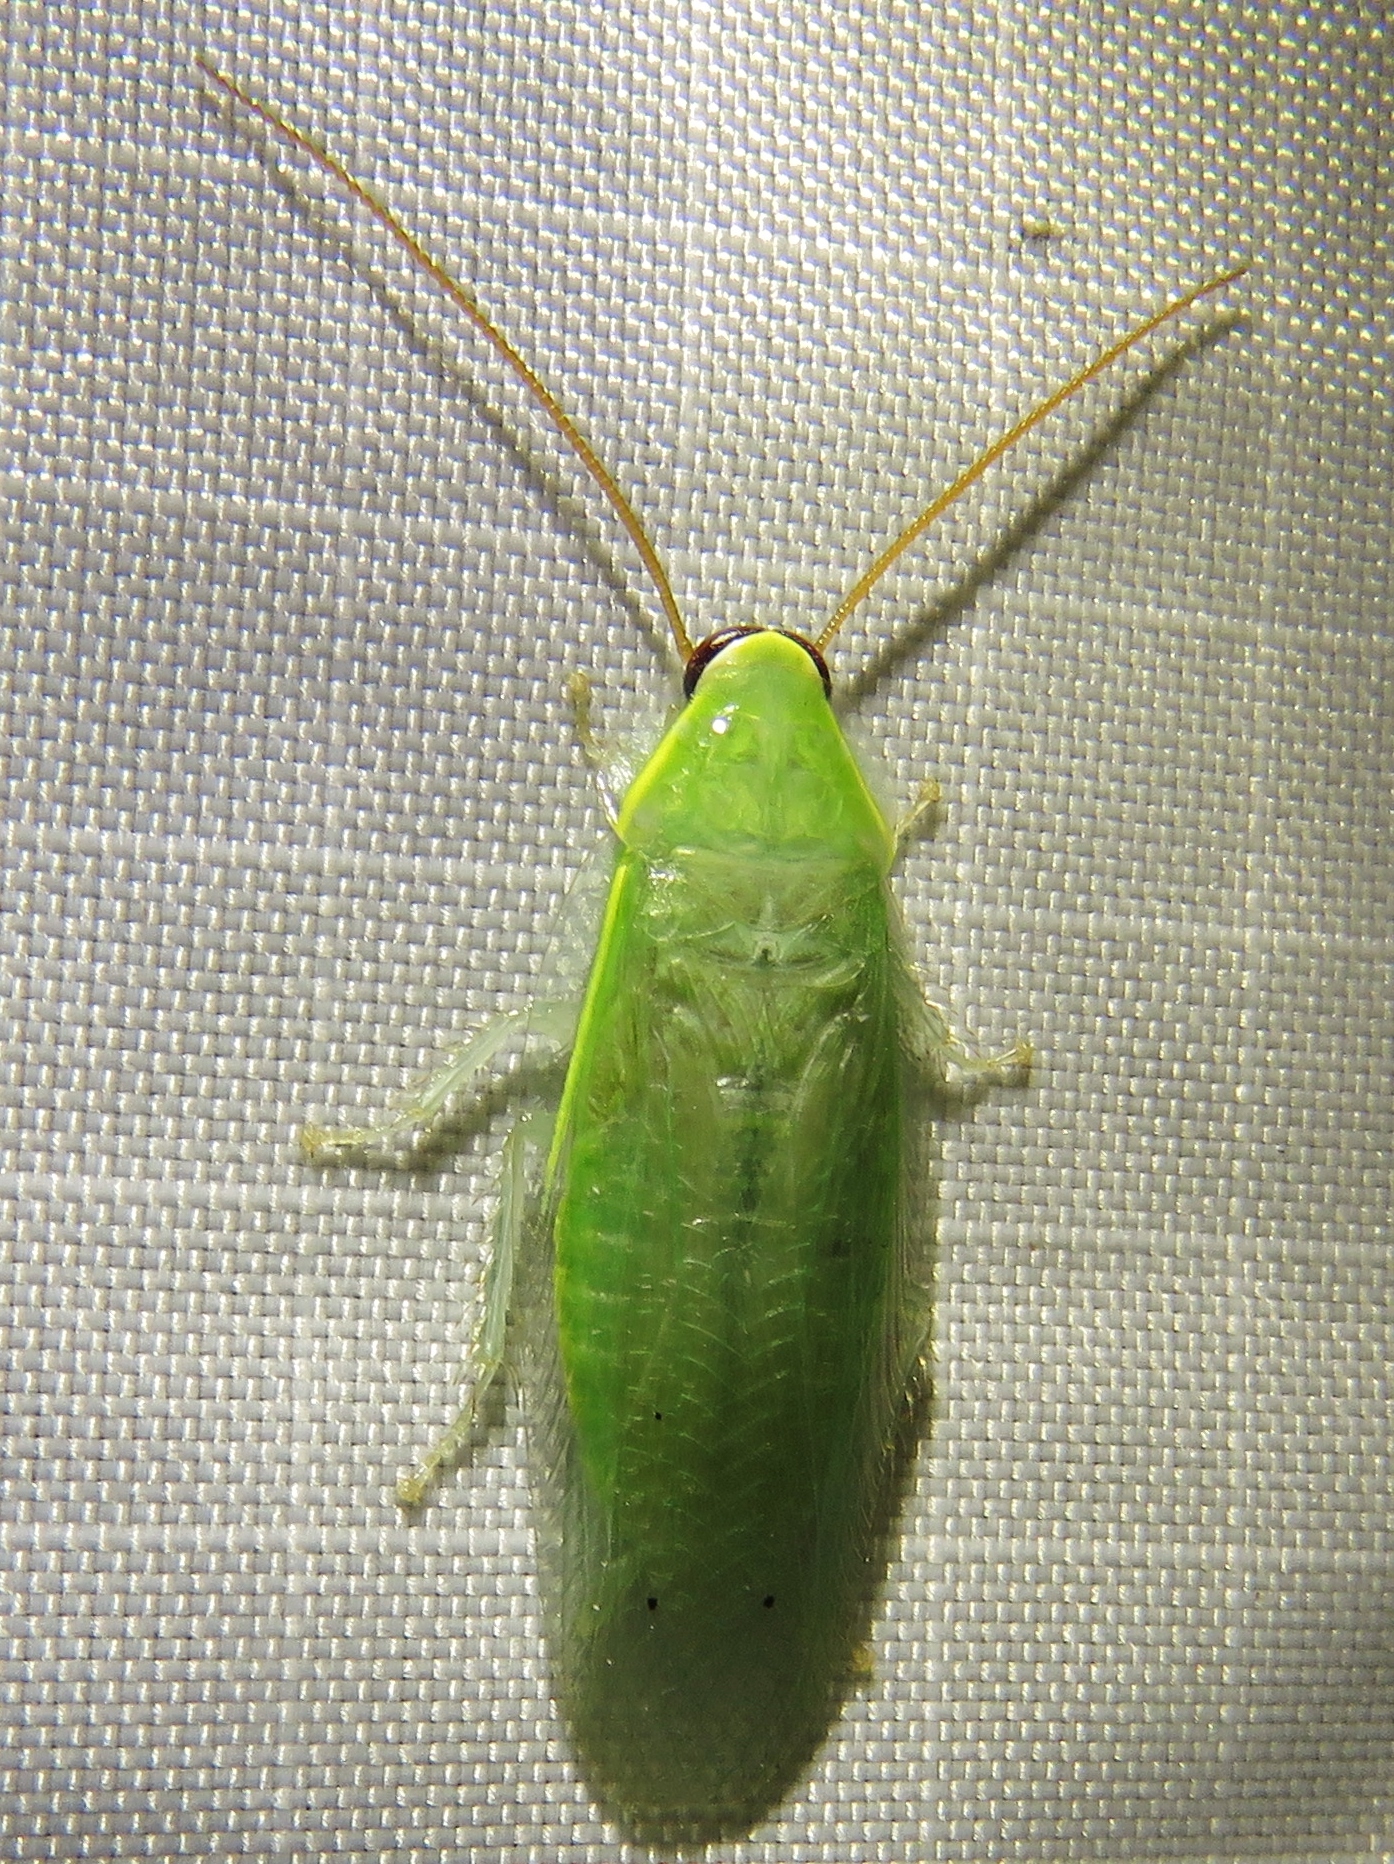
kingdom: Animalia
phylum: Arthropoda
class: Insecta
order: Blattodea
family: Blaberidae
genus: Panchlora
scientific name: Panchlora nivea
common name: Cuban cockroach
